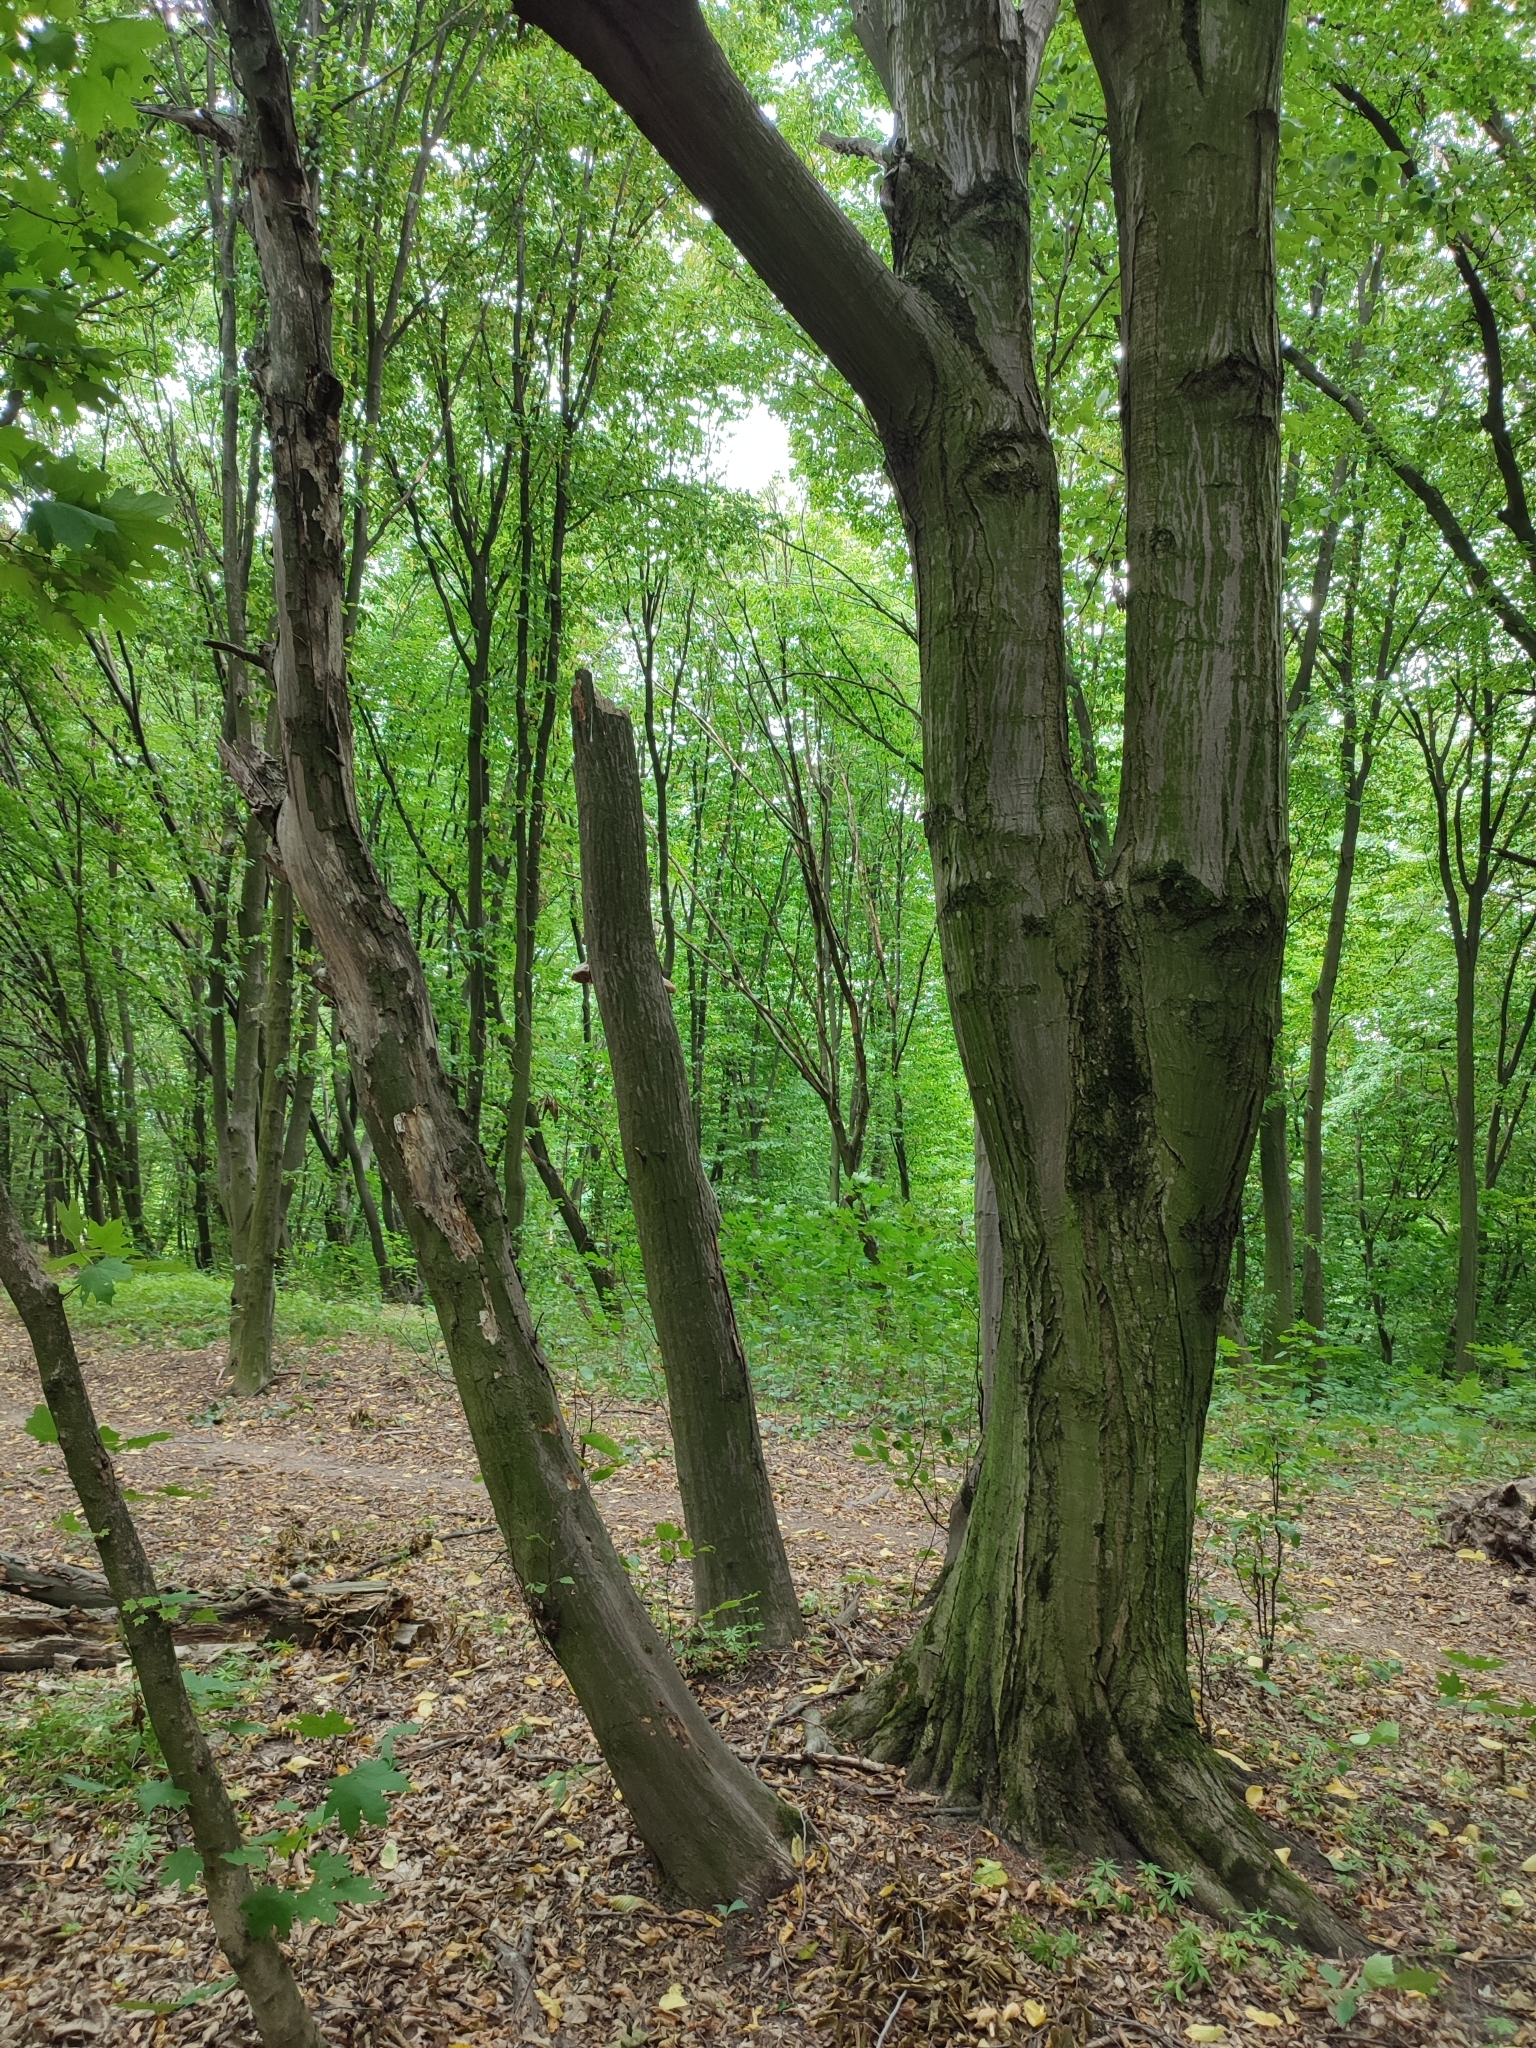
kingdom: Plantae
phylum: Tracheophyta
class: Magnoliopsida
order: Fagales
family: Betulaceae
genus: Carpinus
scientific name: Carpinus betulus
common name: Hornbeam
